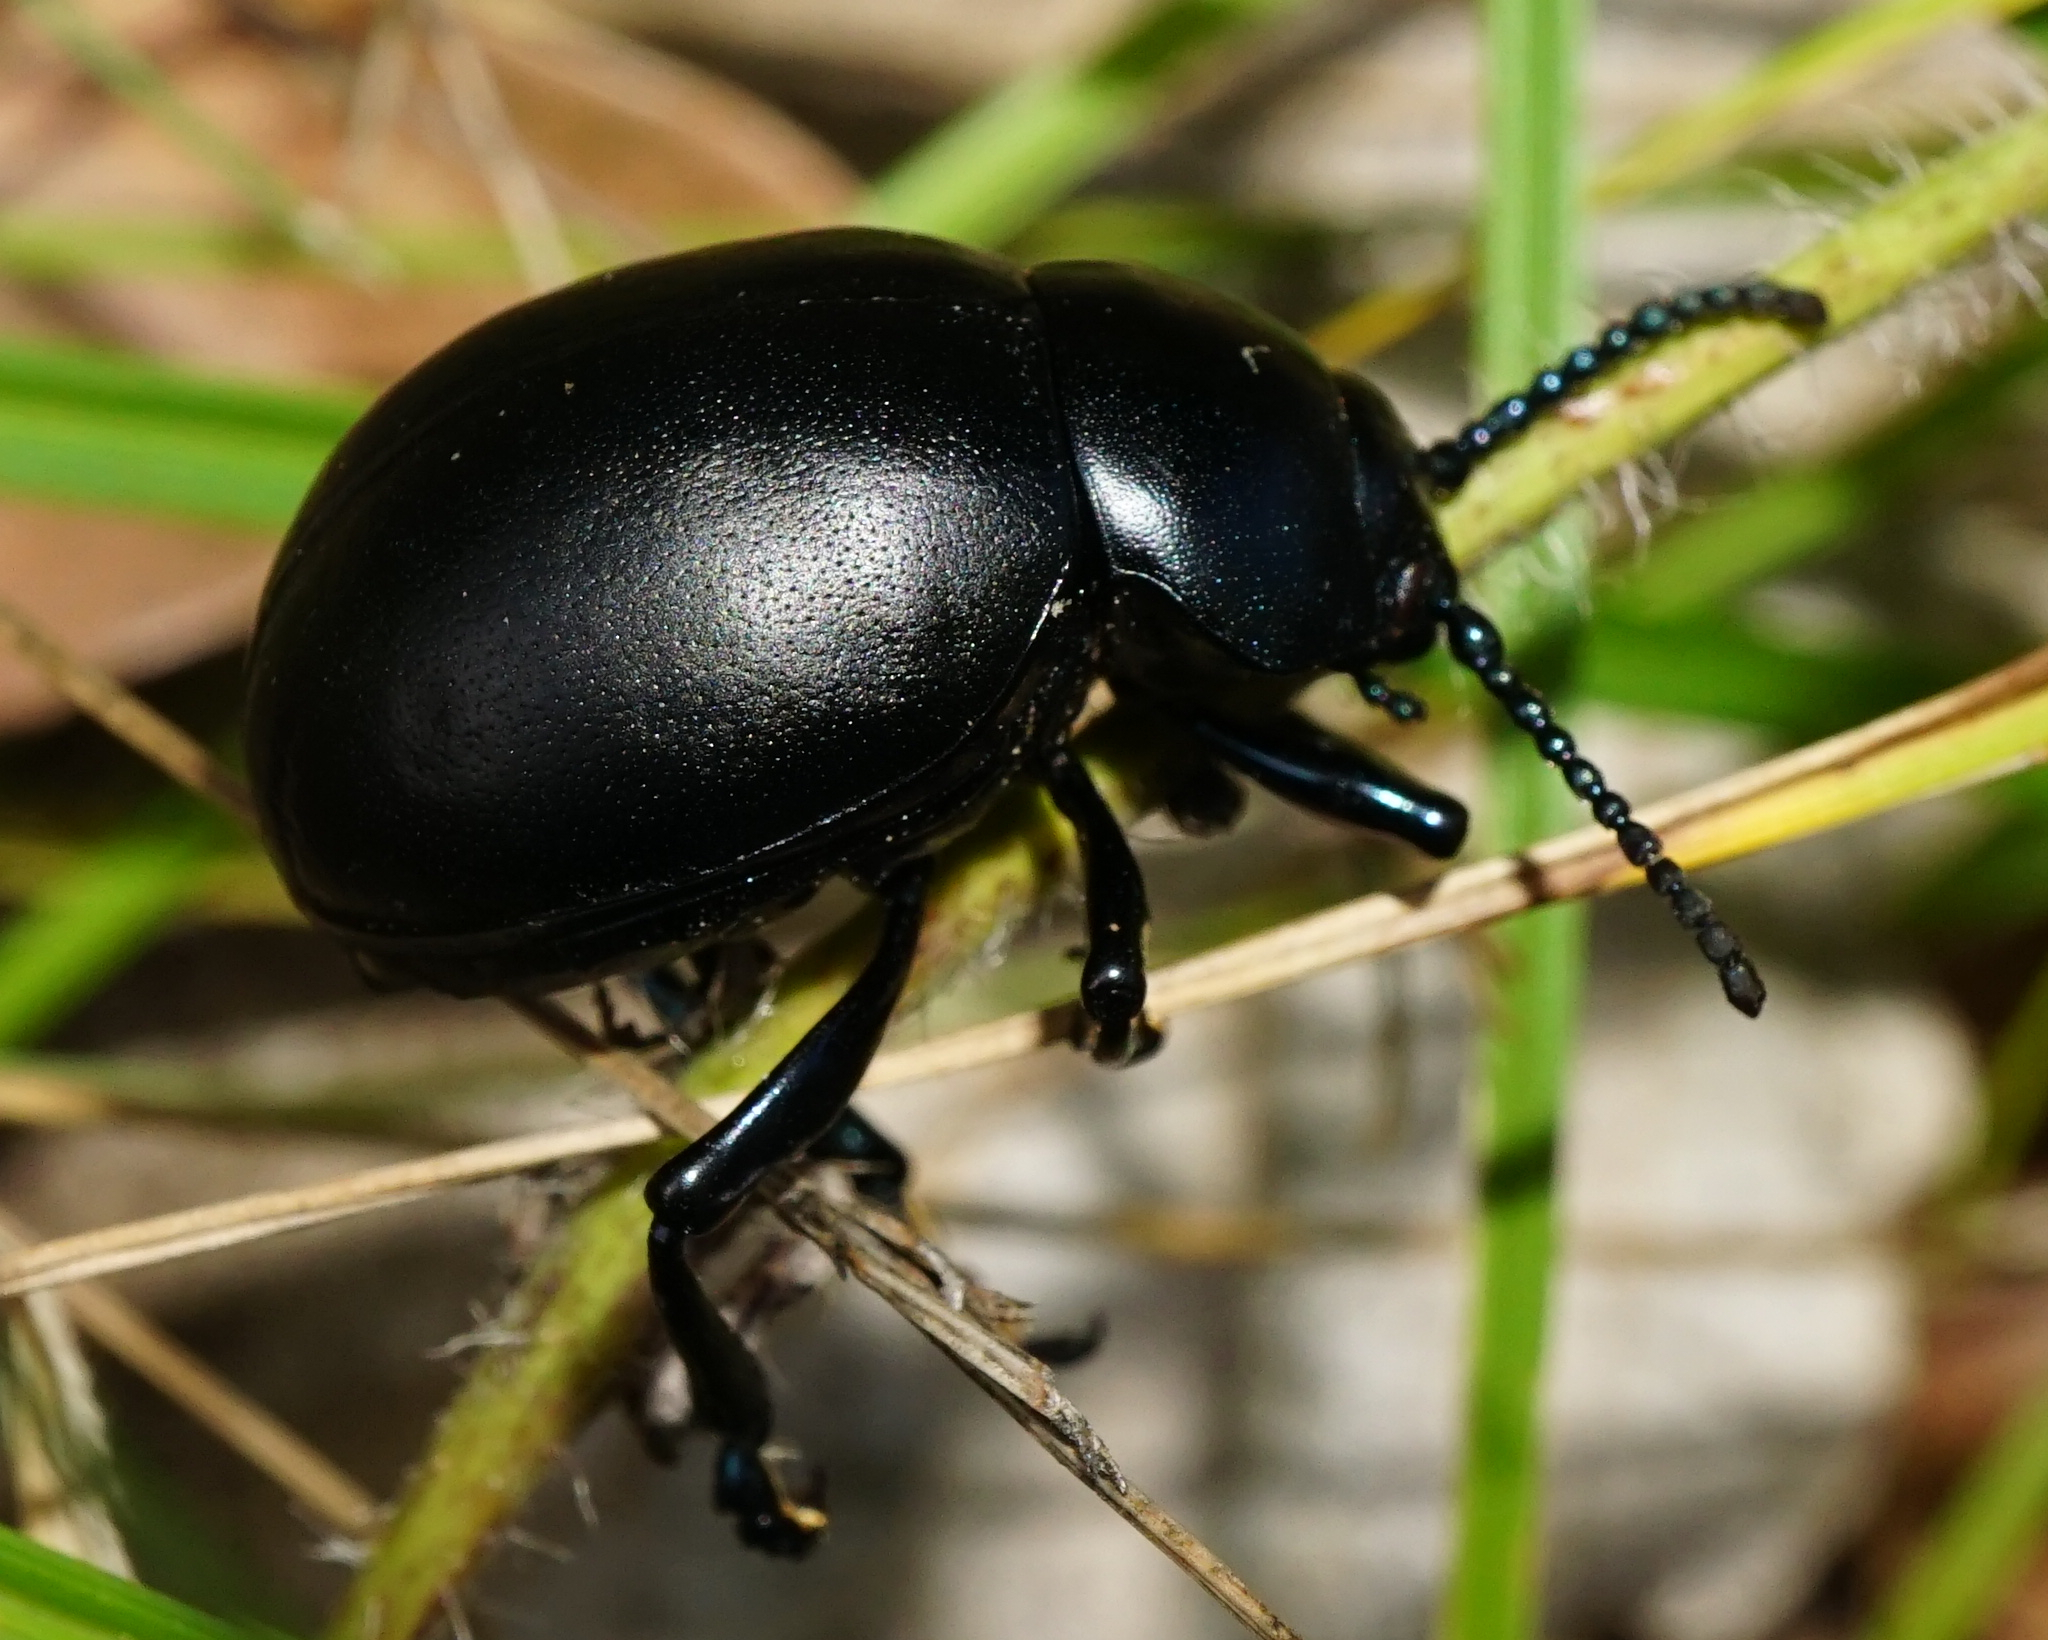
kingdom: Animalia
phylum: Arthropoda
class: Insecta
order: Coleoptera
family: Chrysomelidae
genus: Timarcha
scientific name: Timarcha tenebricosa
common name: Bloody-nosed beetle
